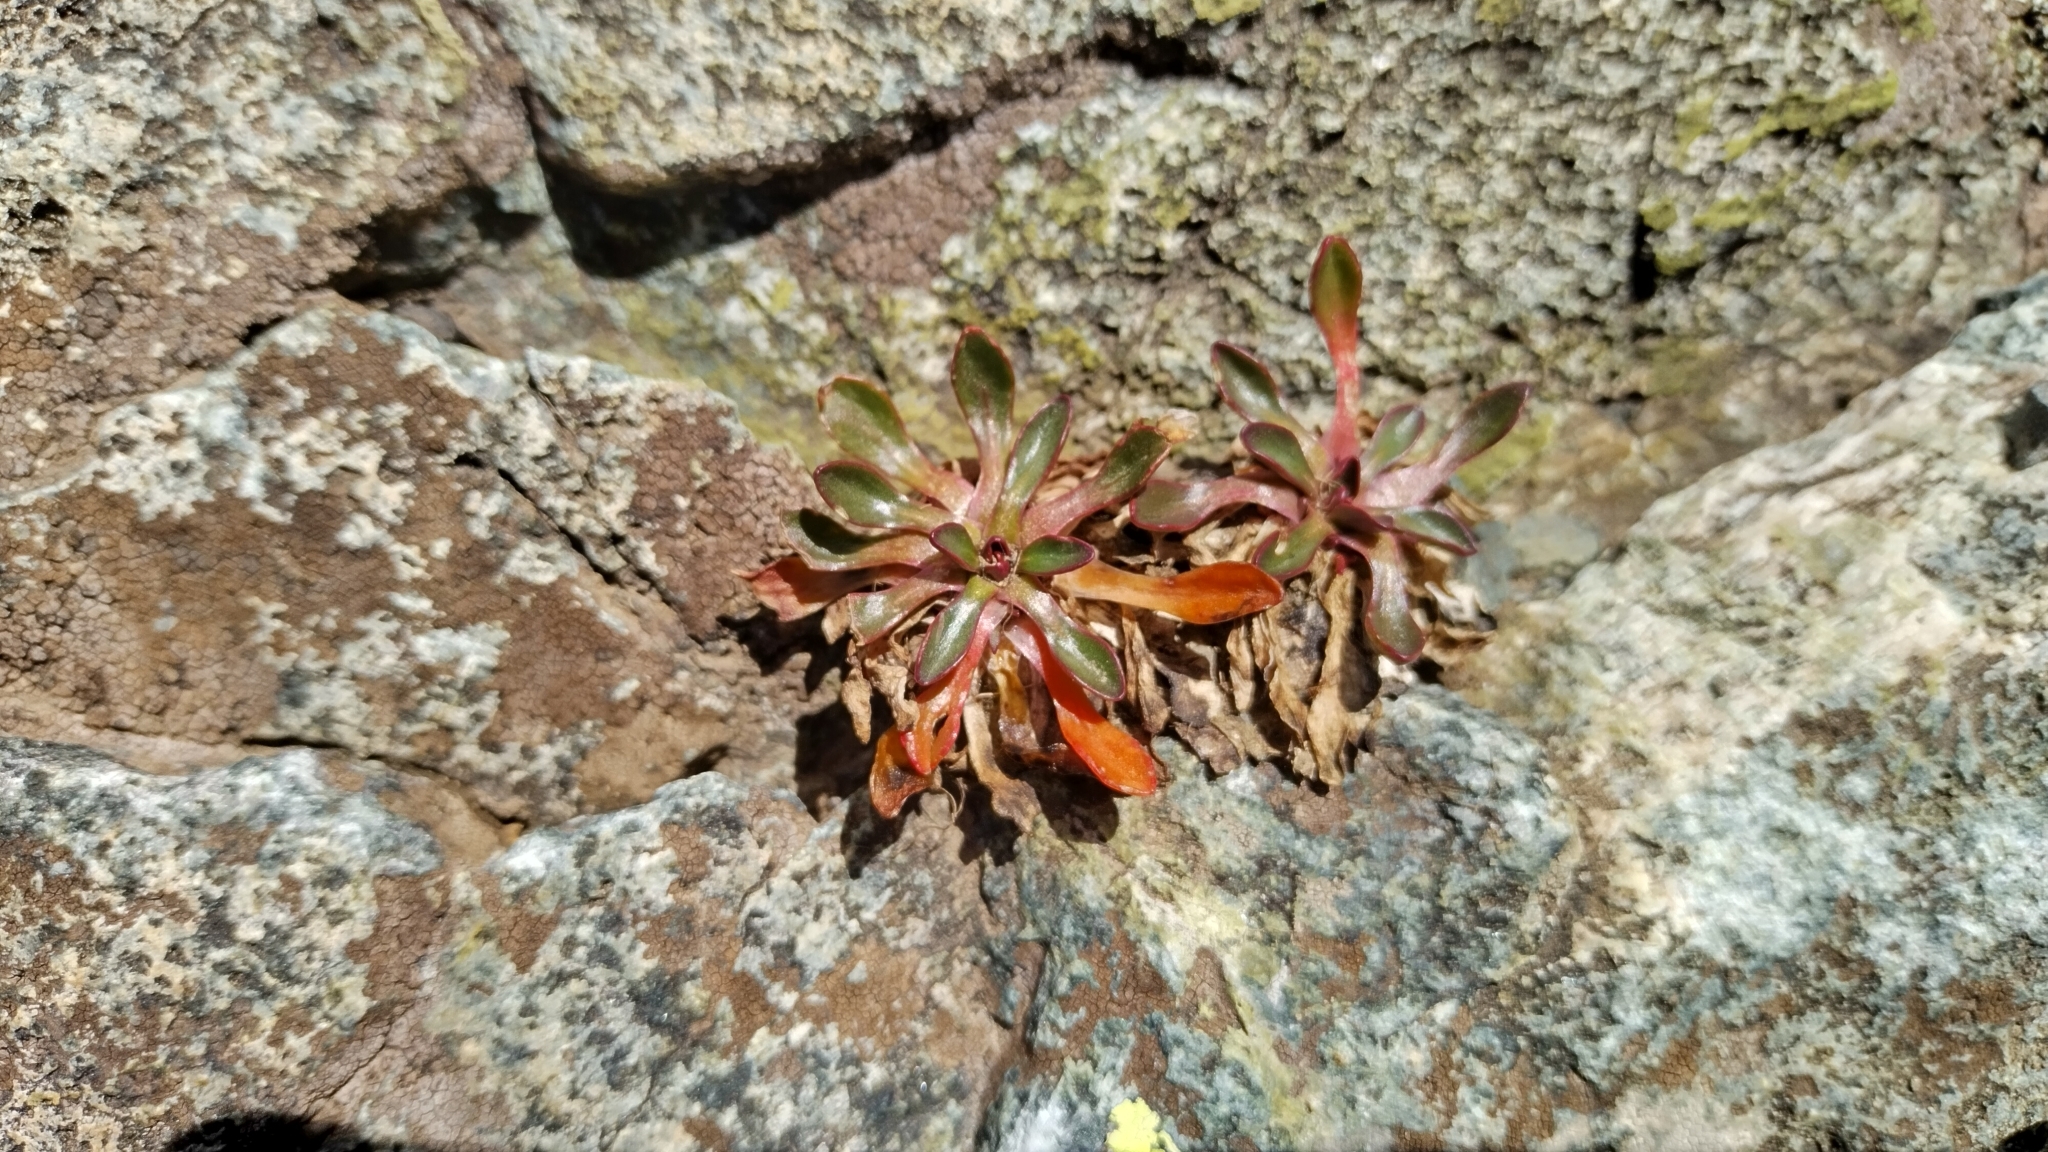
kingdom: Plantae
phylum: Tracheophyta
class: Magnoliopsida
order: Caryophyllales
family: Montiaceae
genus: Claytonia
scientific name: Claytonia megarhiza
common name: Alpine spring beauty
